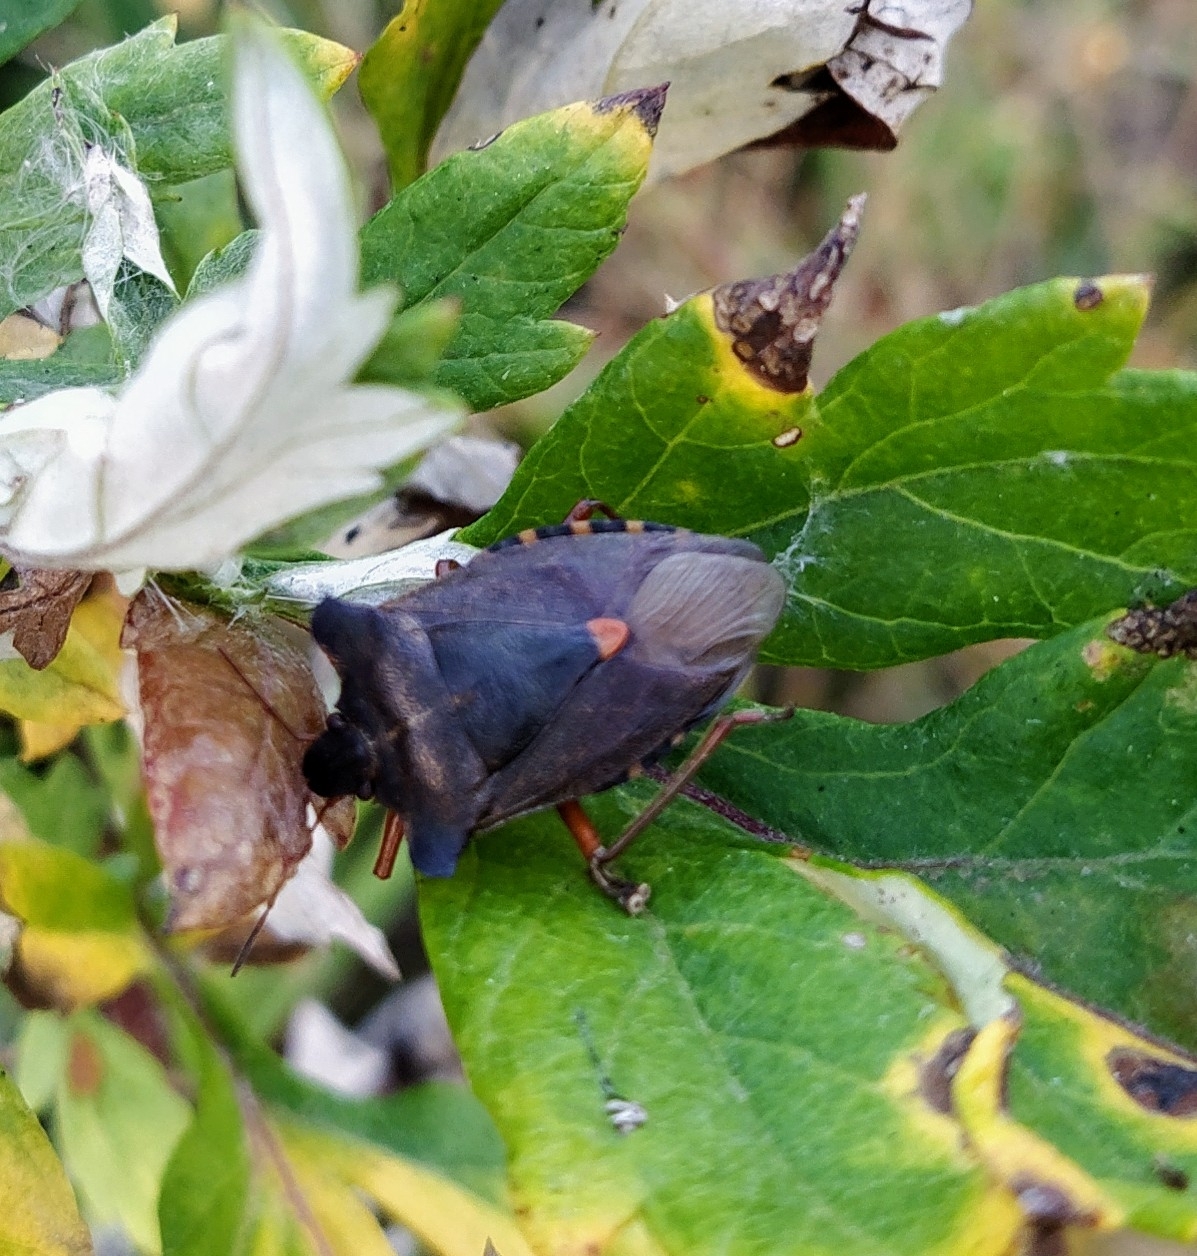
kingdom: Animalia
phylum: Arthropoda
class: Insecta
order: Hemiptera
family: Pentatomidae
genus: Pentatoma
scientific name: Pentatoma rufipes
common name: Forest bug
